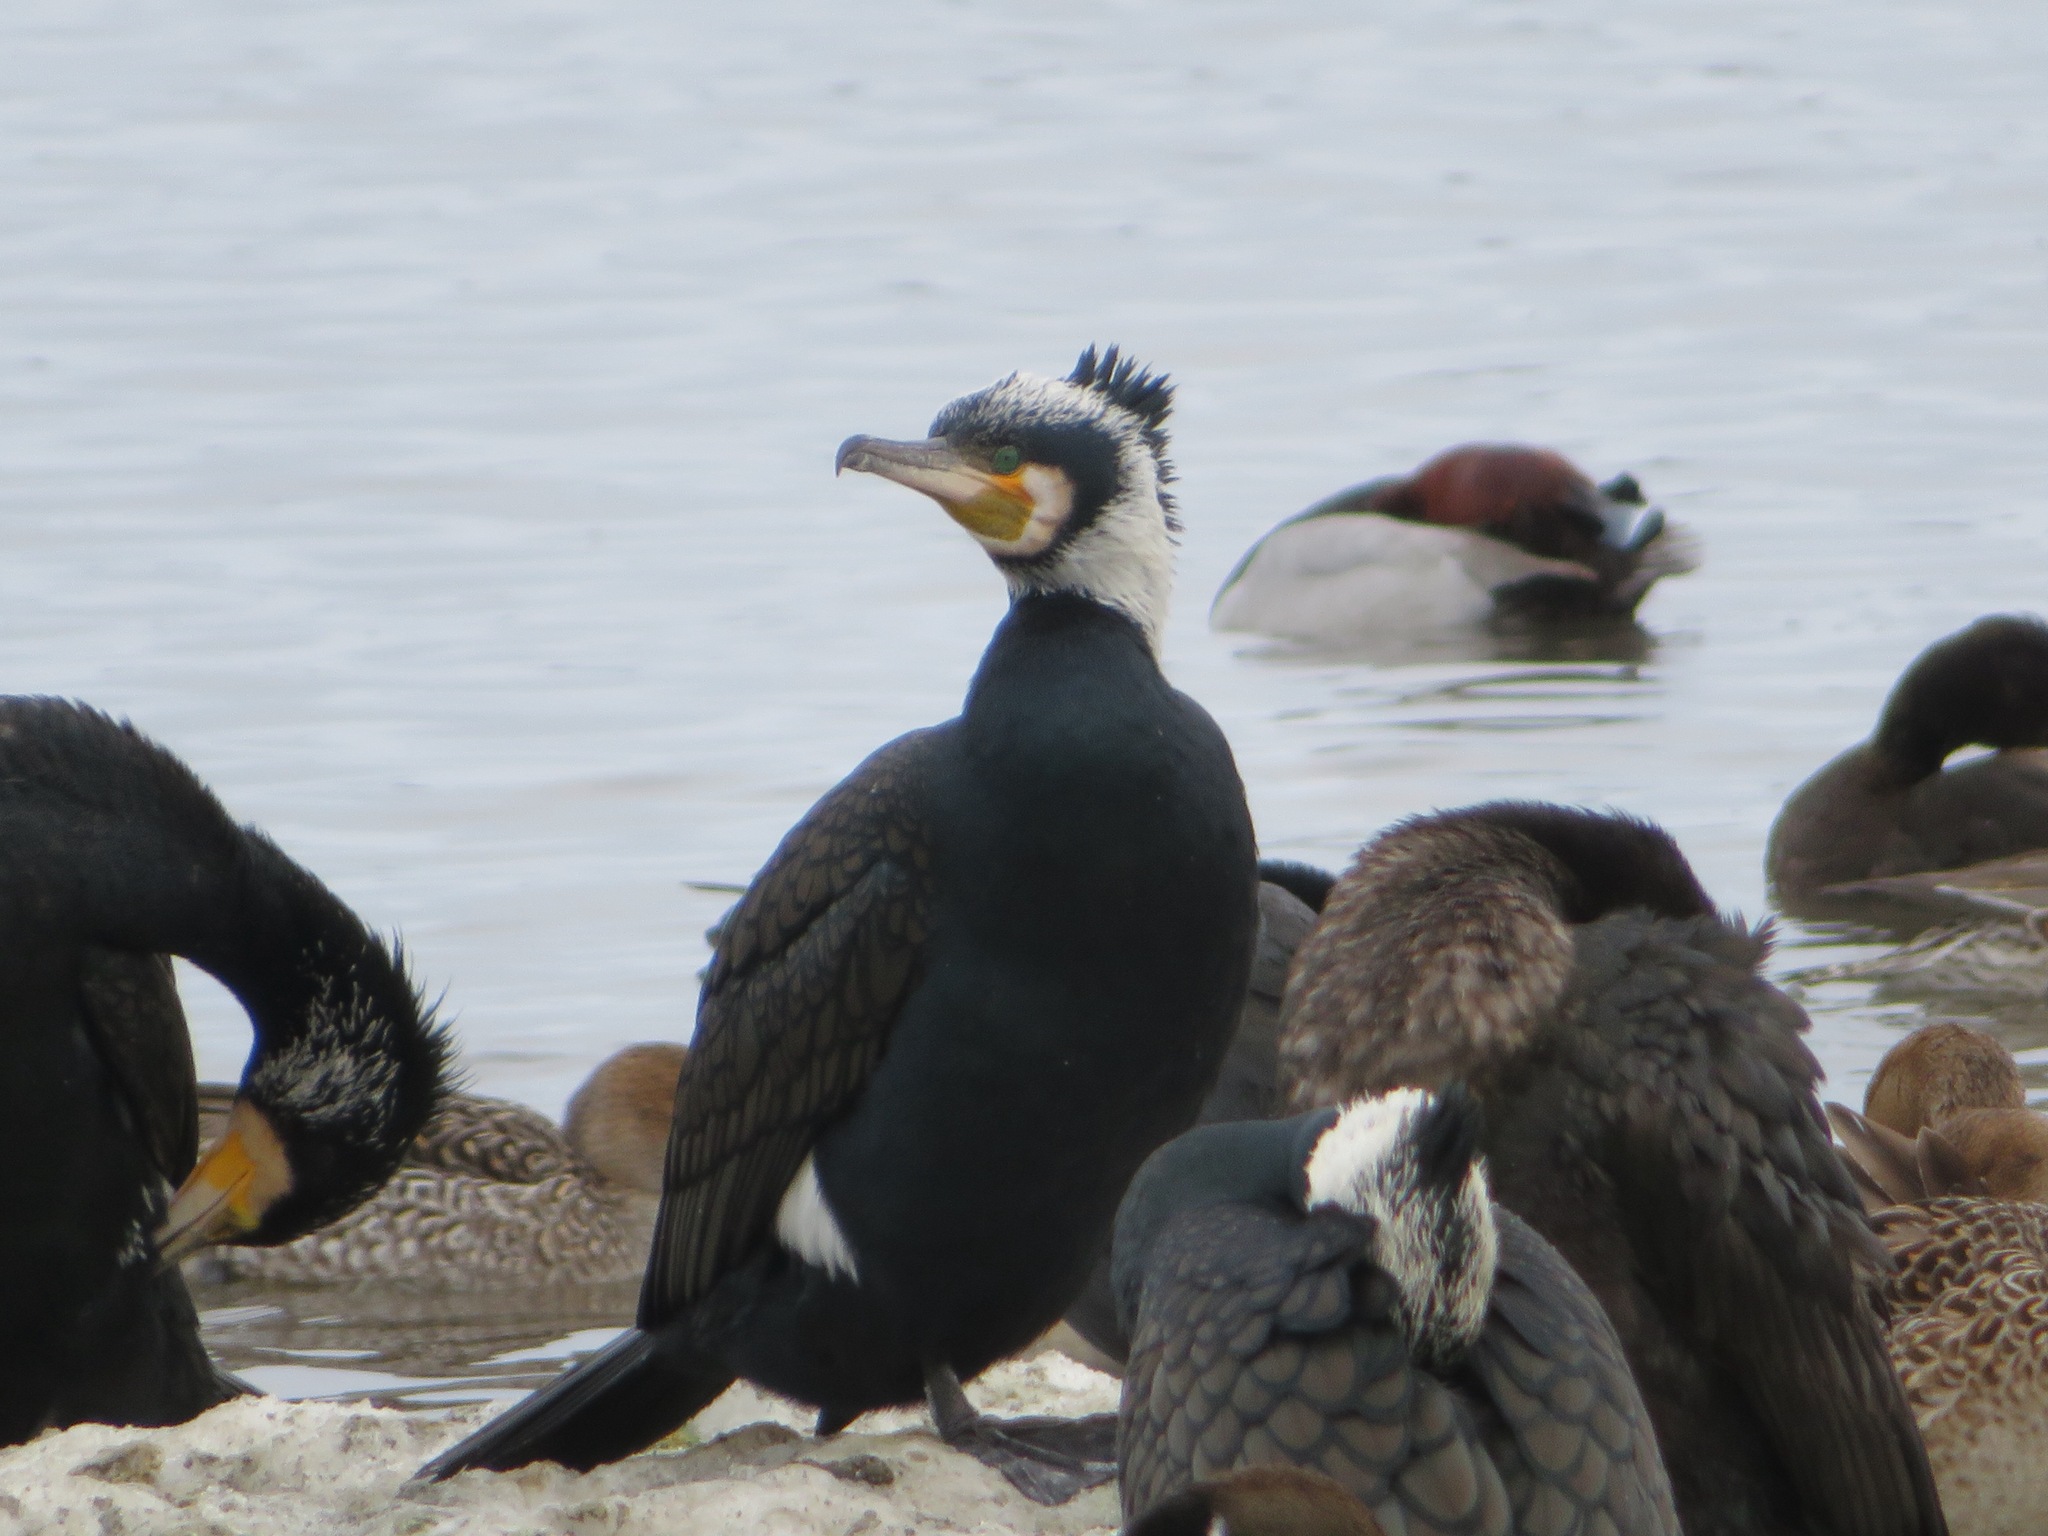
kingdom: Animalia
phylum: Chordata
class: Aves
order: Suliformes
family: Phalacrocoracidae
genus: Phalacrocorax
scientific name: Phalacrocorax carbo
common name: Great cormorant
